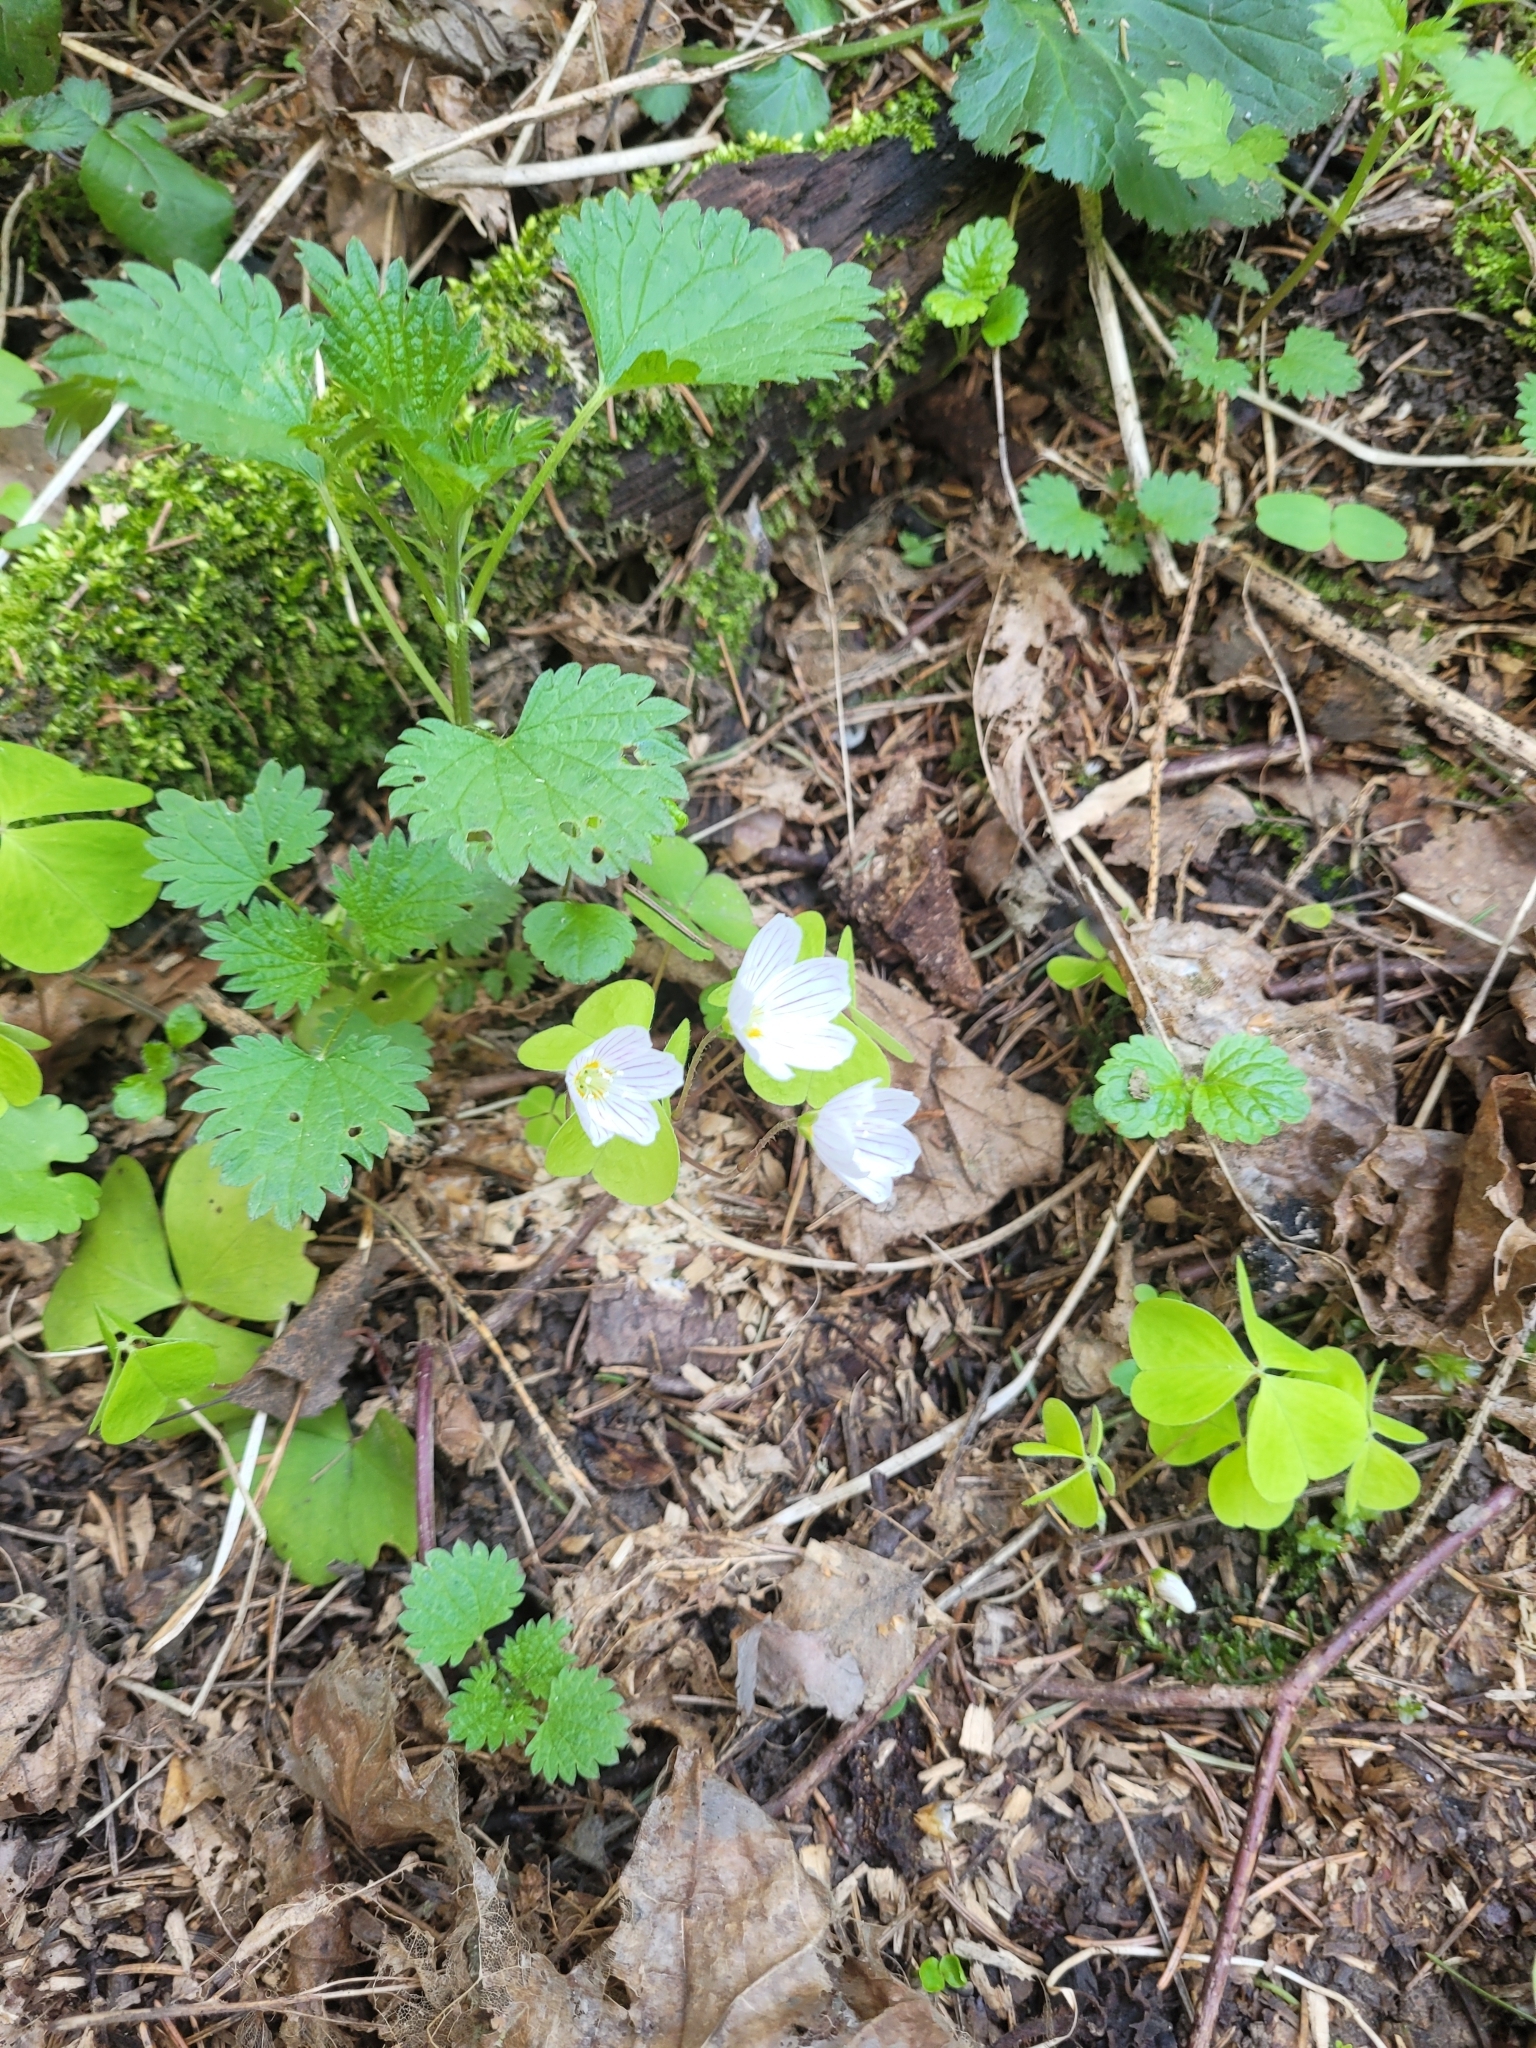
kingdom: Plantae
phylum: Tracheophyta
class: Magnoliopsida
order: Oxalidales
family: Oxalidaceae
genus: Oxalis
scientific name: Oxalis acetosella
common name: Wood-sorrel
